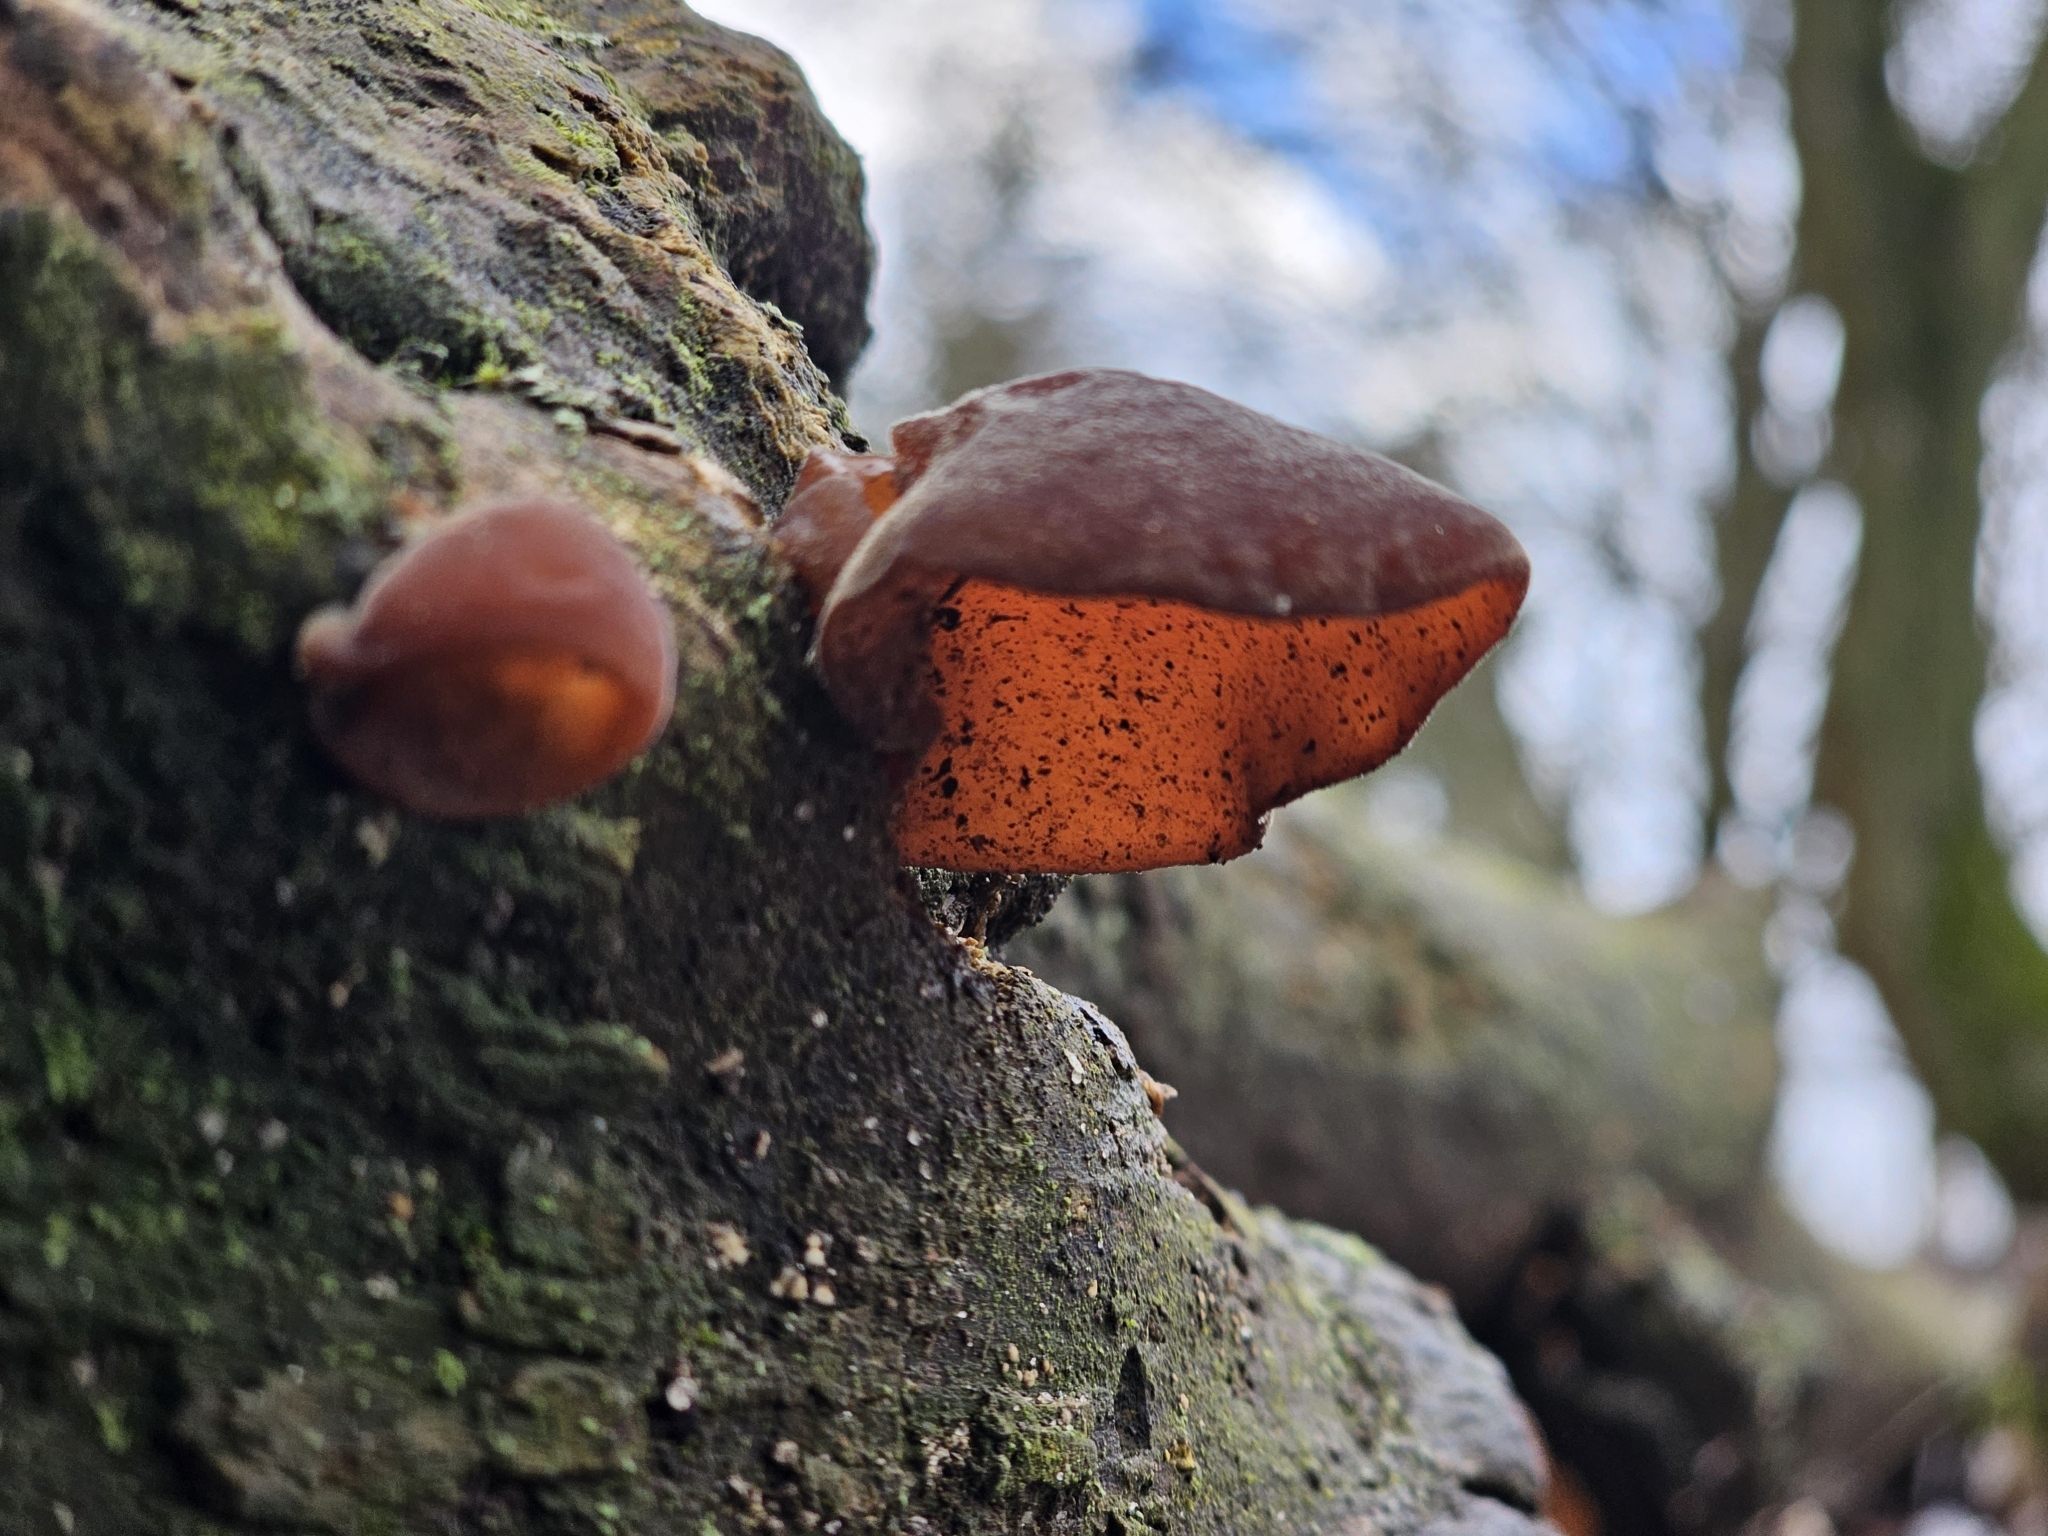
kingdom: Fungi
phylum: Basidiomycota
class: Agaricomycetes
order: Auriculariales
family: Auriculariaceae
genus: Auricularia
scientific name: Auricularia auricula-judae
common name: Jelly ear
